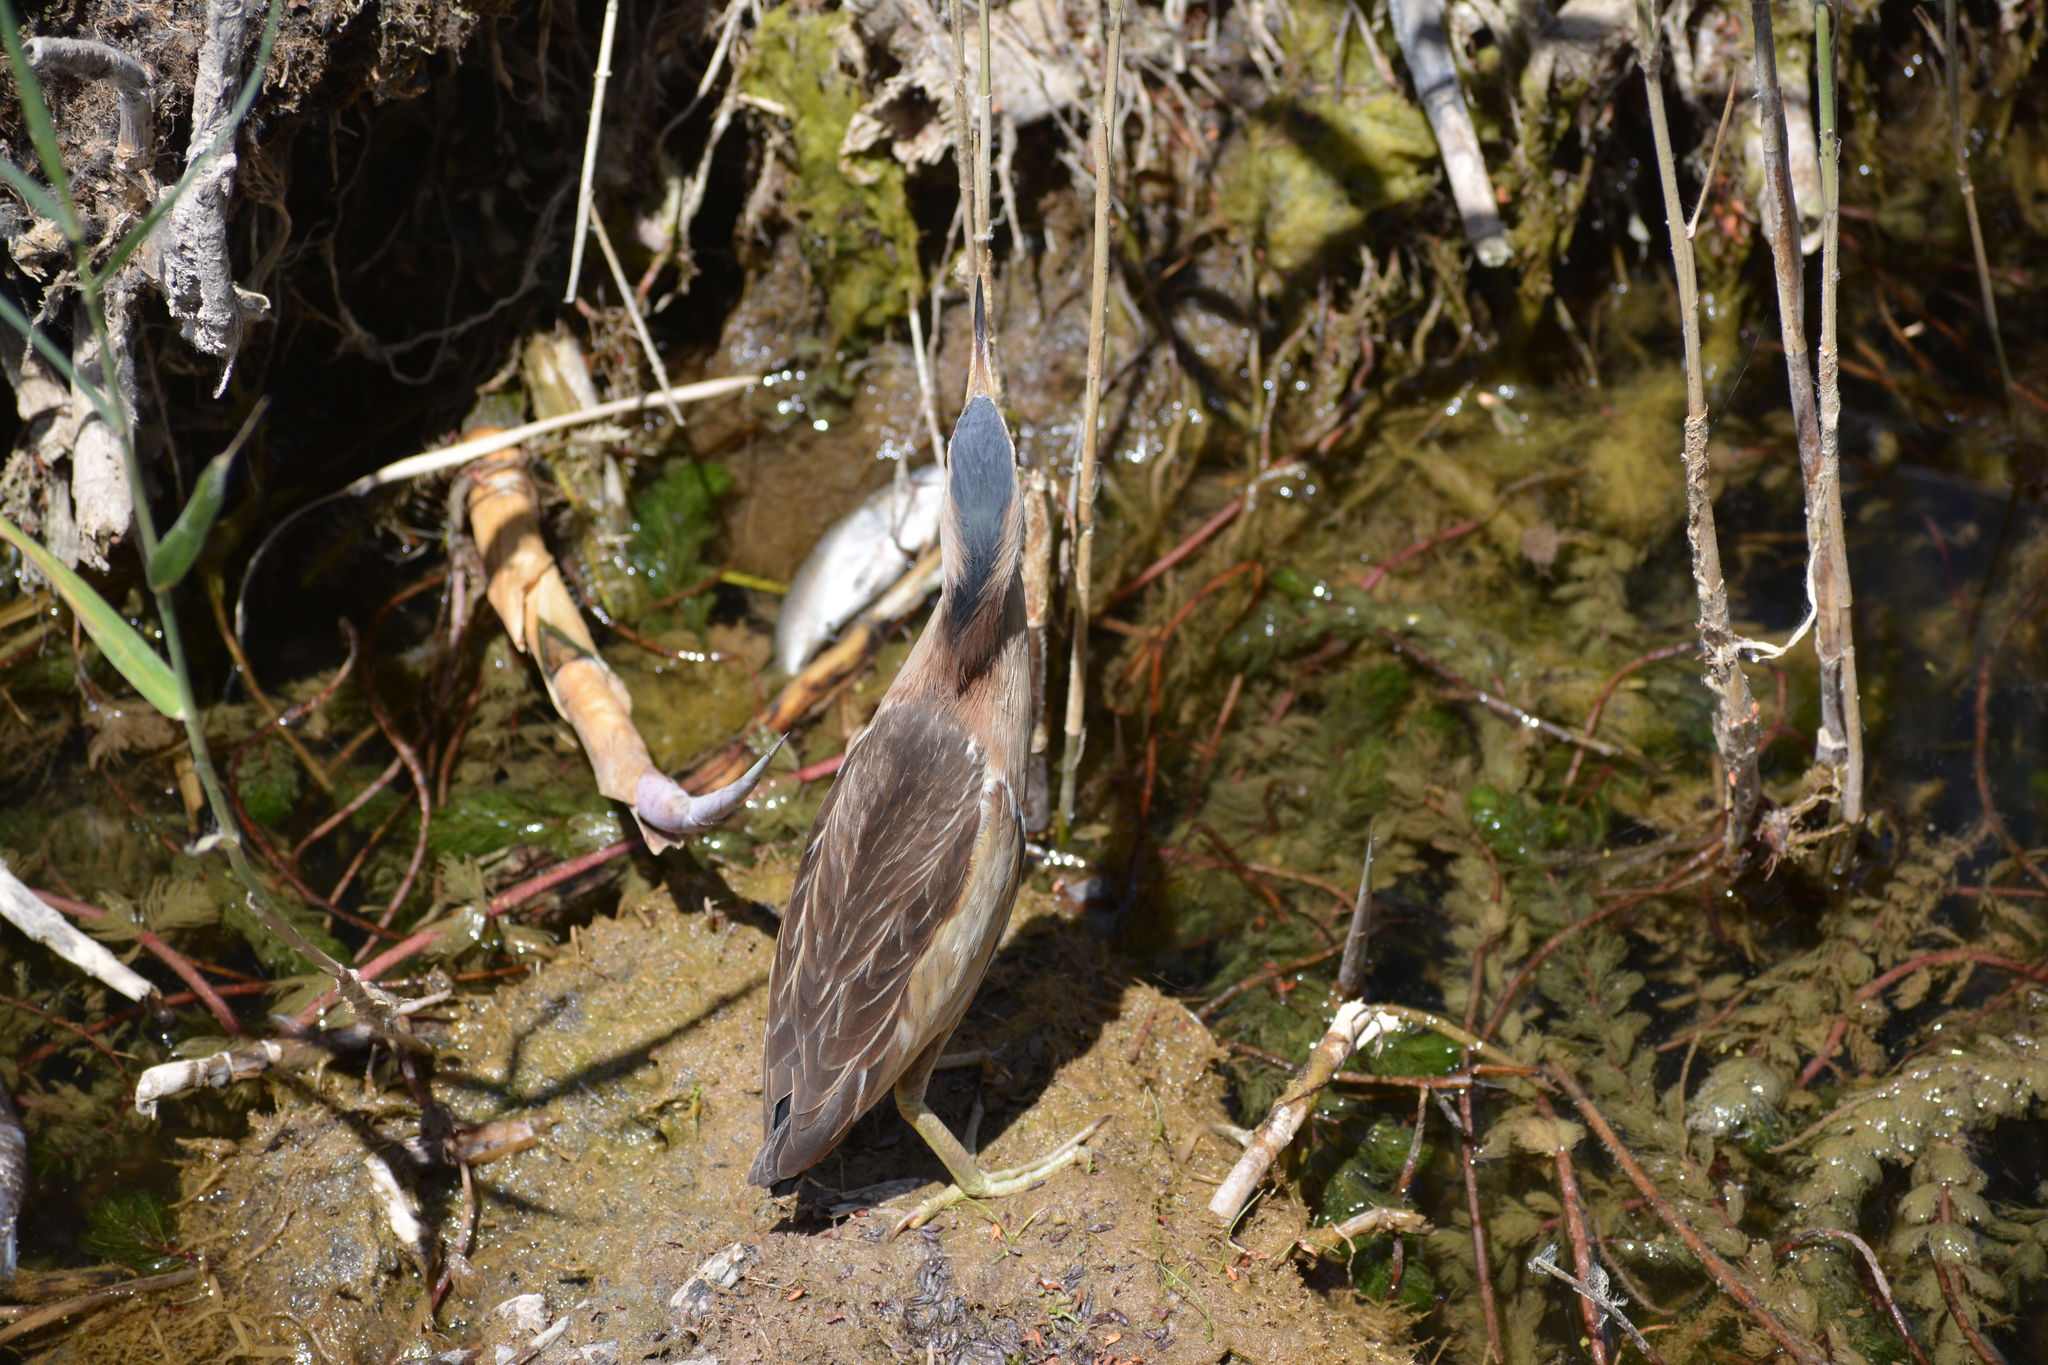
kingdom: Animalia
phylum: Chordata
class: Aves
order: Pelecaniformes
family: Ardeidae
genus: Ixobrychus
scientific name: Ixobrychus minutus
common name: Little bittern
